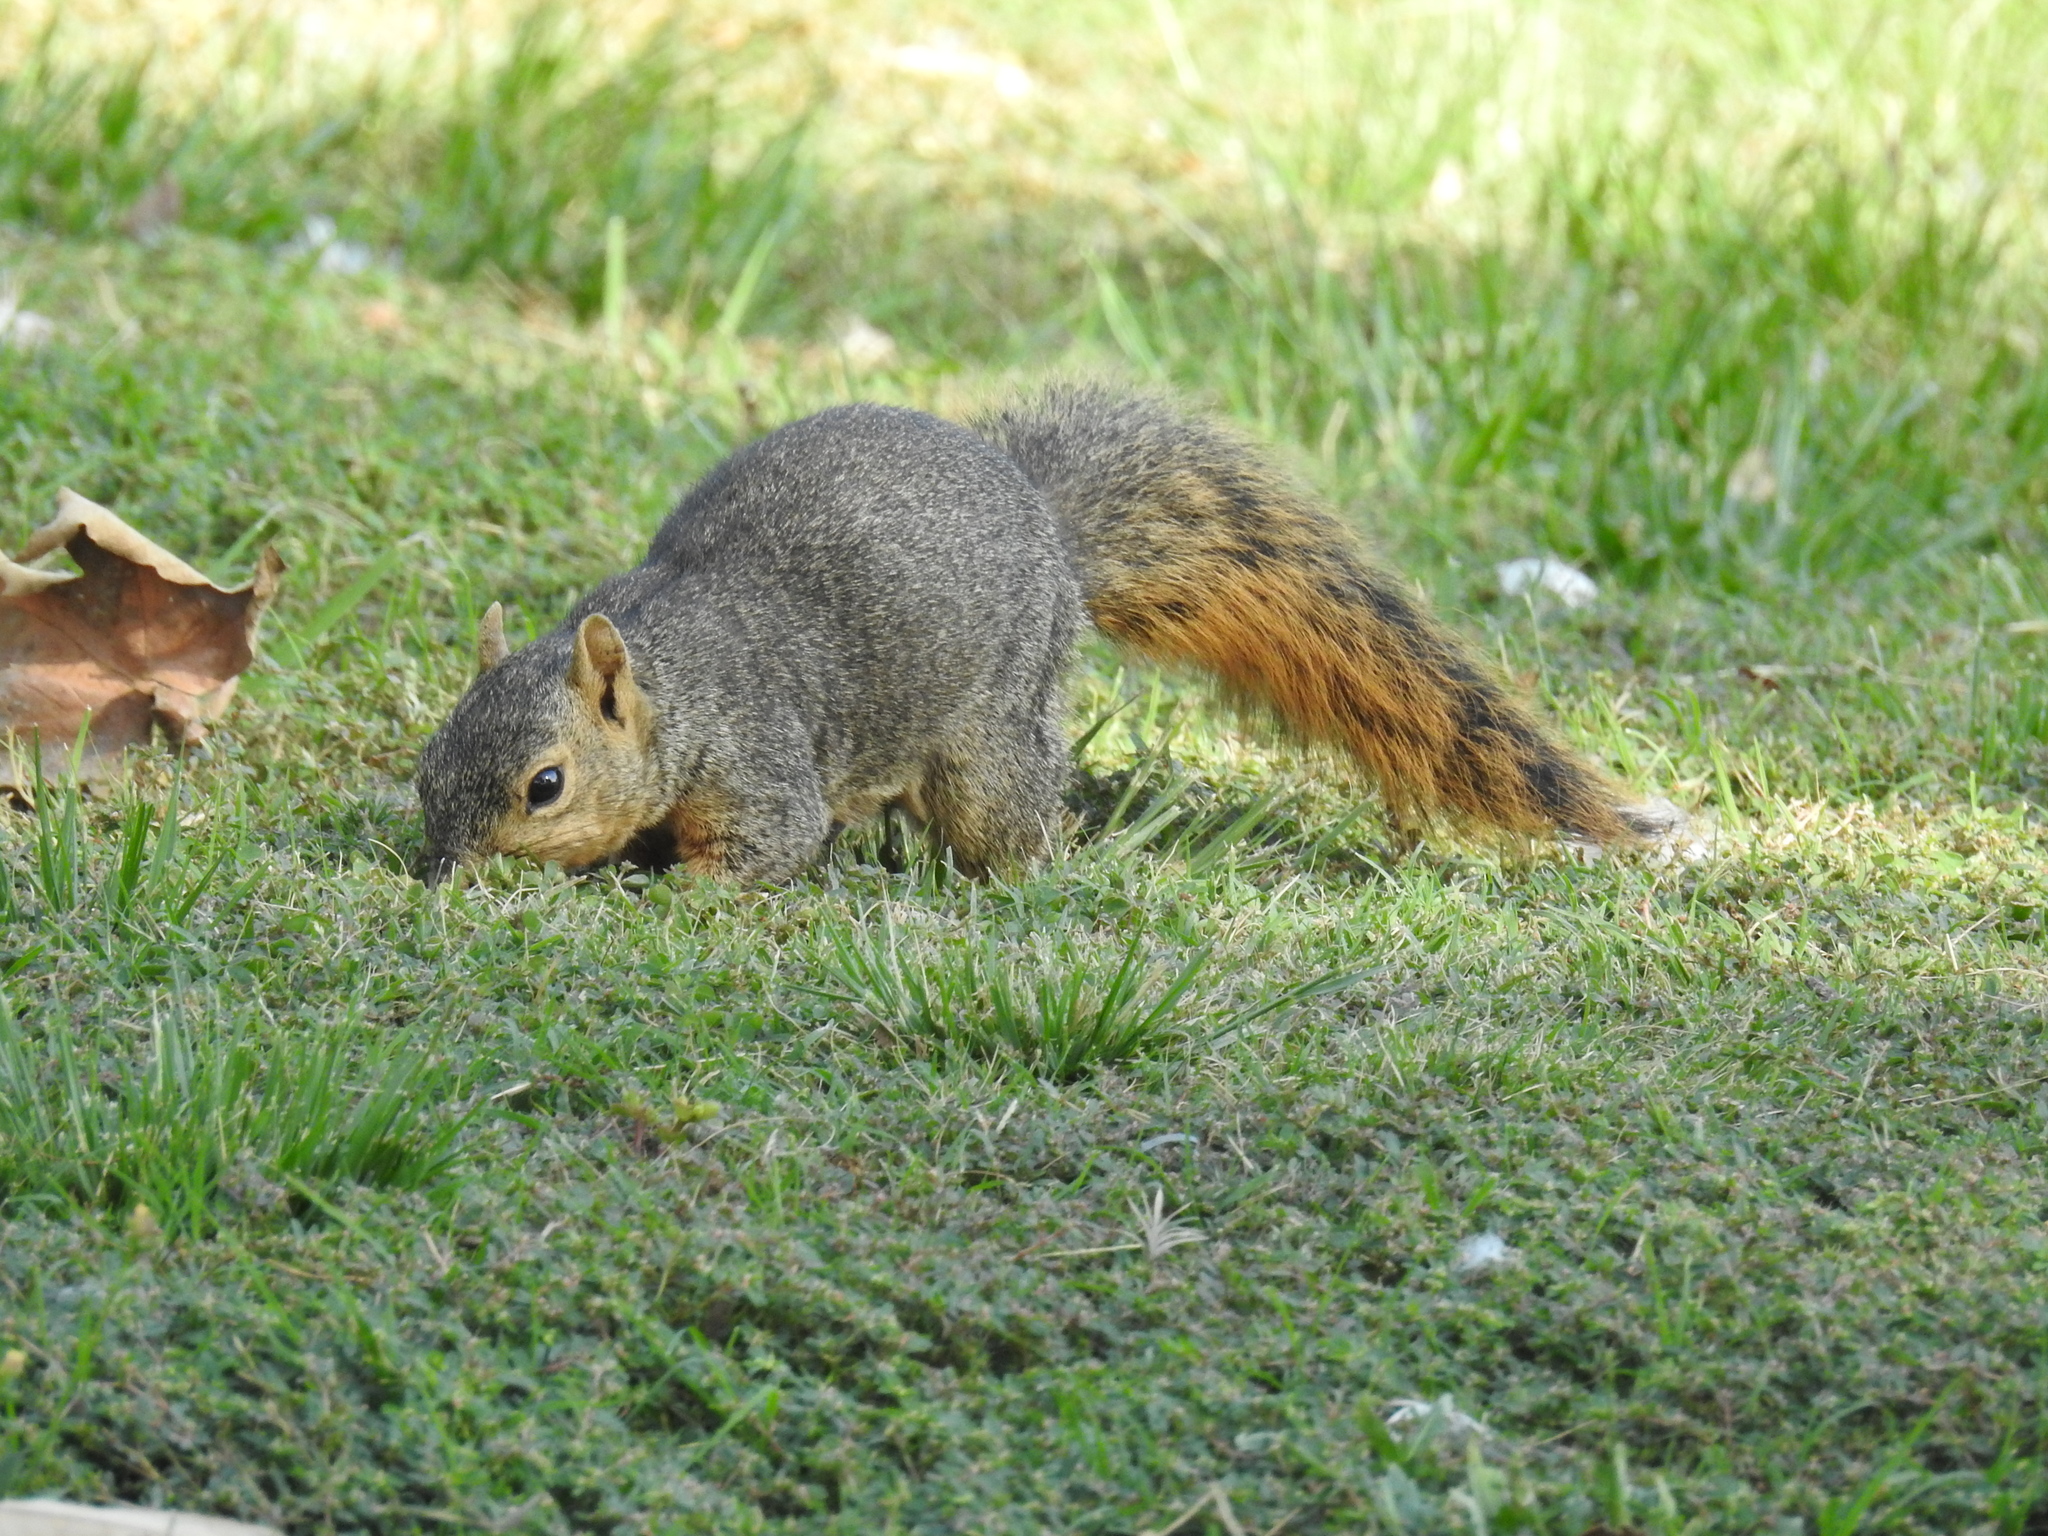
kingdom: Animalia
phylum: Chordata
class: Mammalia
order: Rodentia
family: Sciuridae
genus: Sciurus
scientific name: Sciurus niger
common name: Fox squirrel
